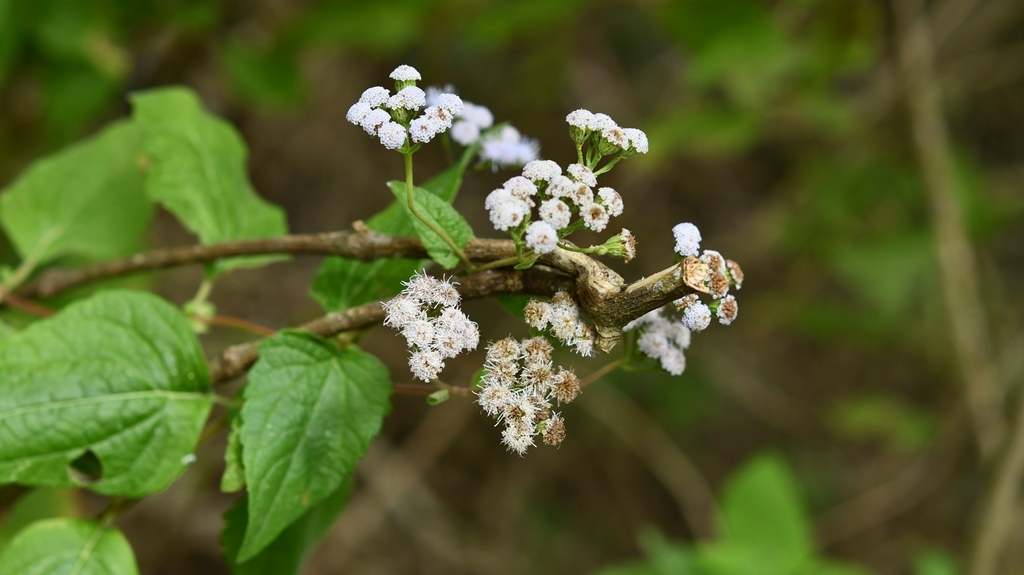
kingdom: Plantae
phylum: Tracheophyta
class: Magnoliopsida
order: Asterales
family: Asteraceae
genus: Ageratum
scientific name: Ageratum conyzoides
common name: Tropical whiteweed
